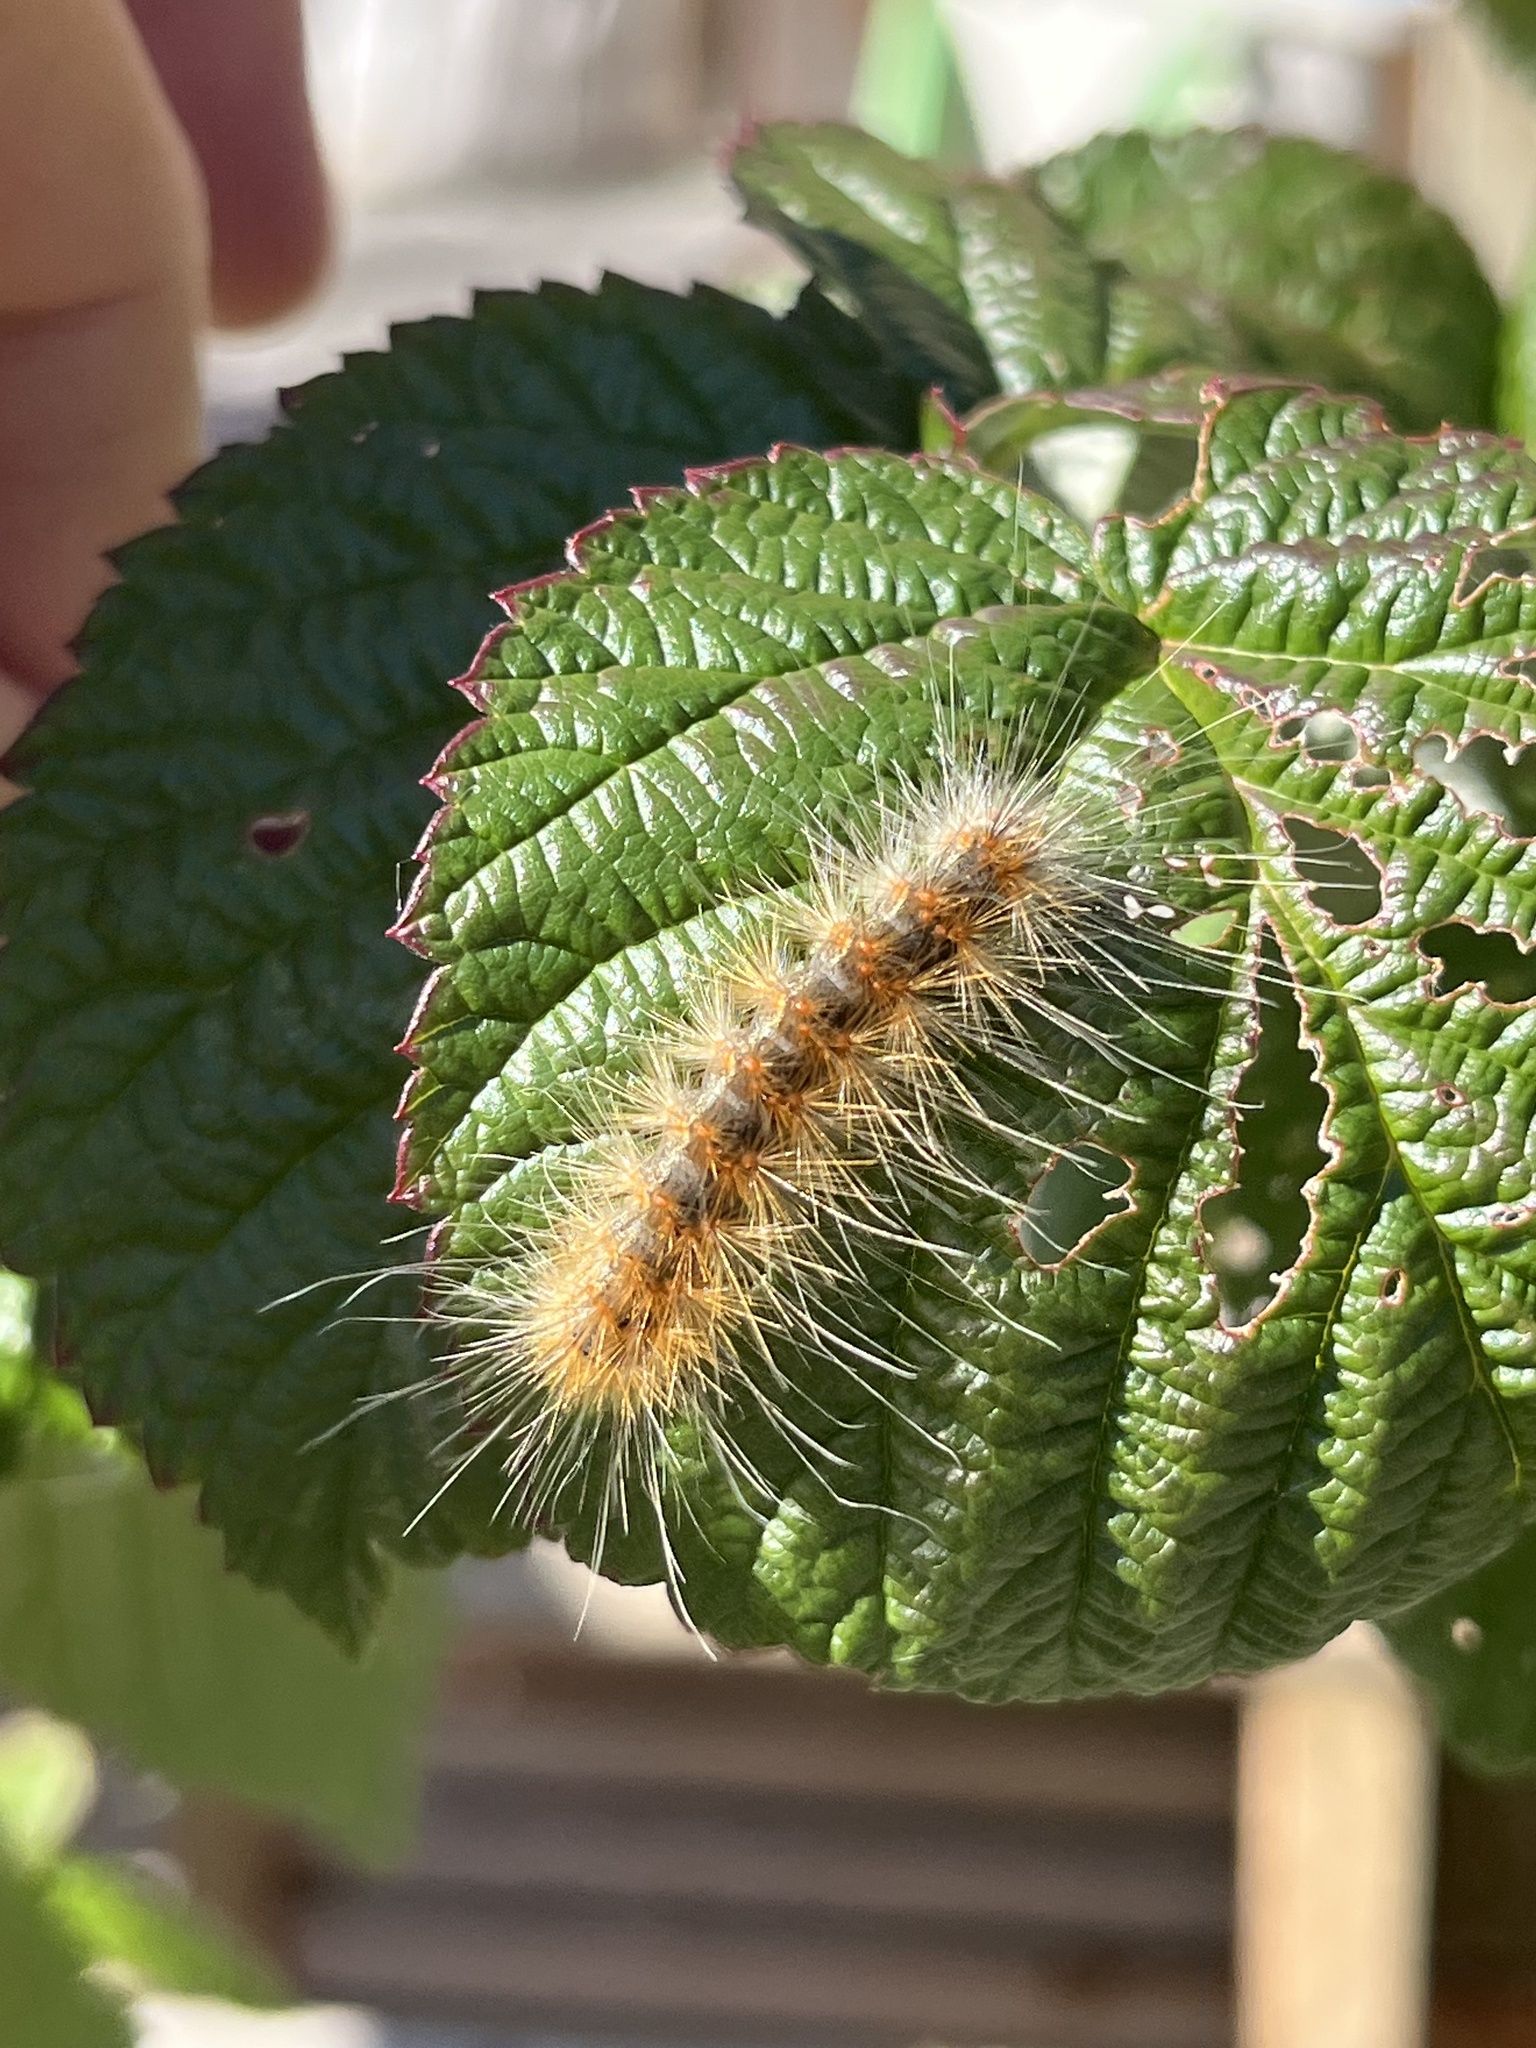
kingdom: Animalia
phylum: Arthropoda
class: Insecta
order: Lepidoptera
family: Erebidae
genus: Hyphantria
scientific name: Hyphantria cunea
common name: American white moth
